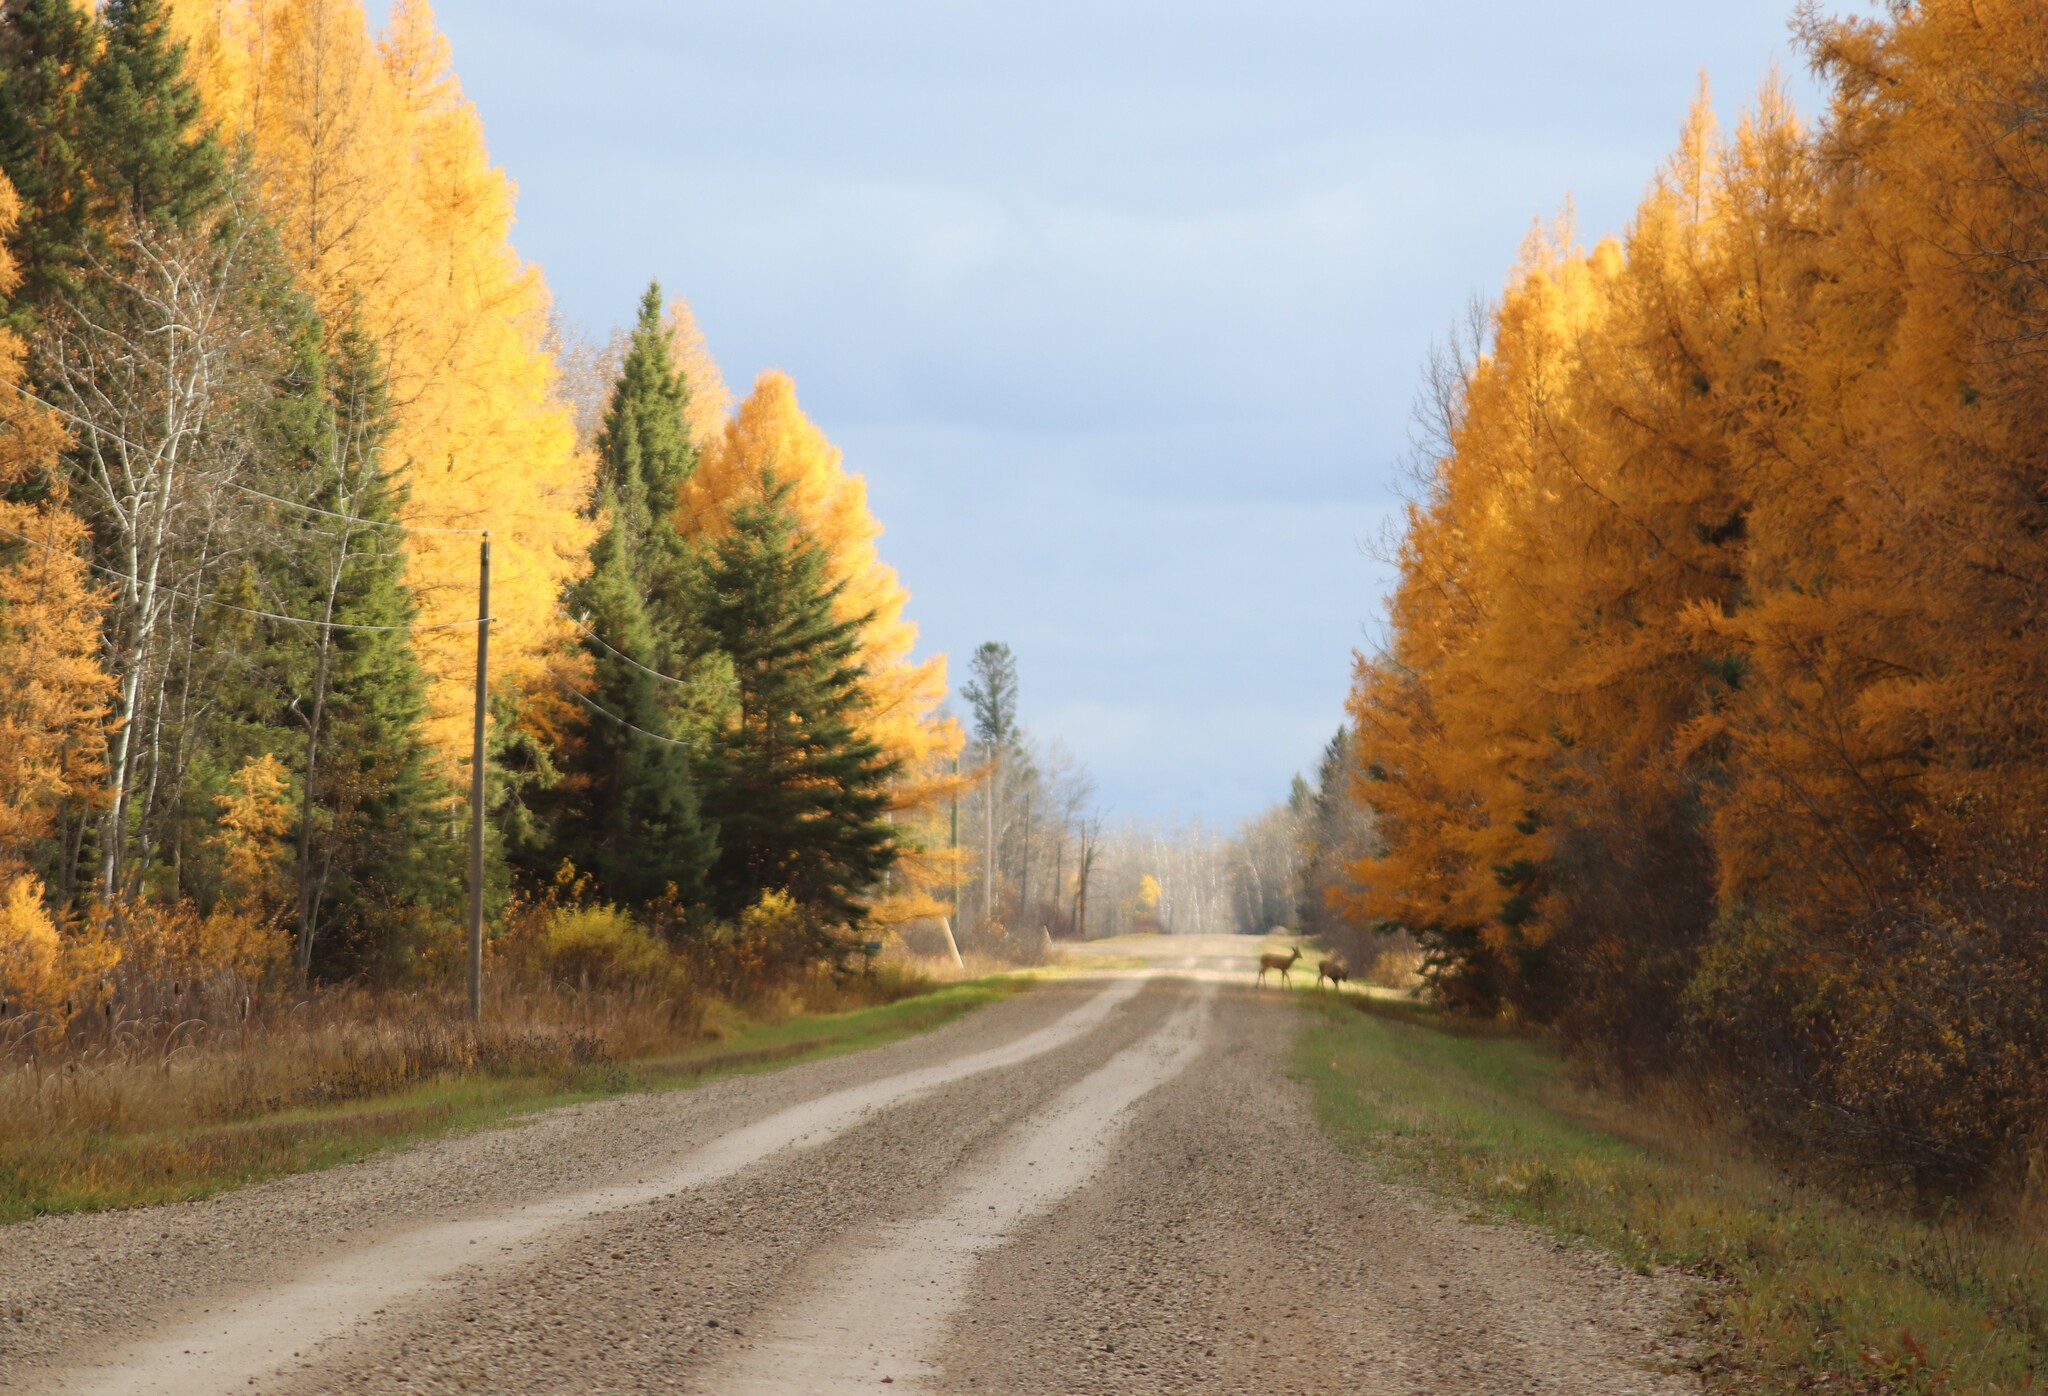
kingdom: Plantae
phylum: Tracheophyta
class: Pinopsida
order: Pinales
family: Pinaceae
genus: Larix
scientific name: Larix laricina
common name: American larch
